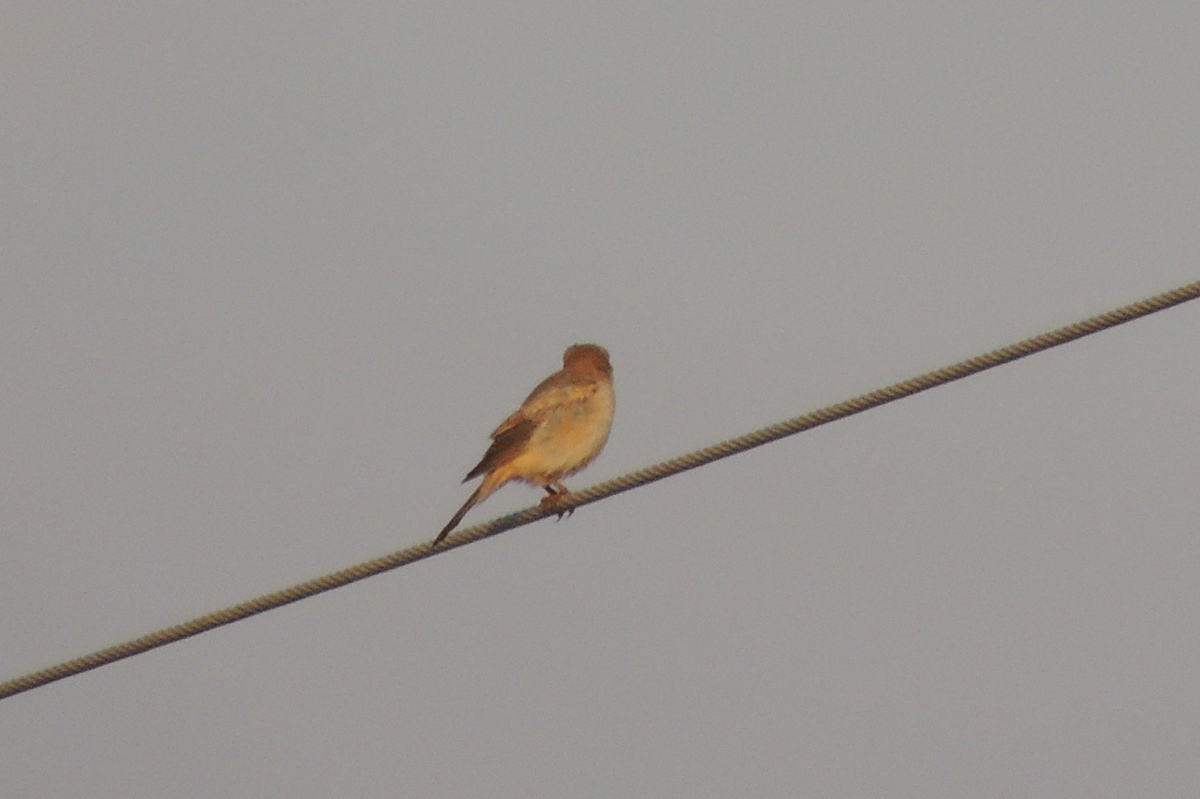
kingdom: Animalia
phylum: Chordata
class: Aves
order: Passeriformes
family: Laniidae
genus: Lanius
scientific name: Lanius senator
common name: Woodchat shrike
